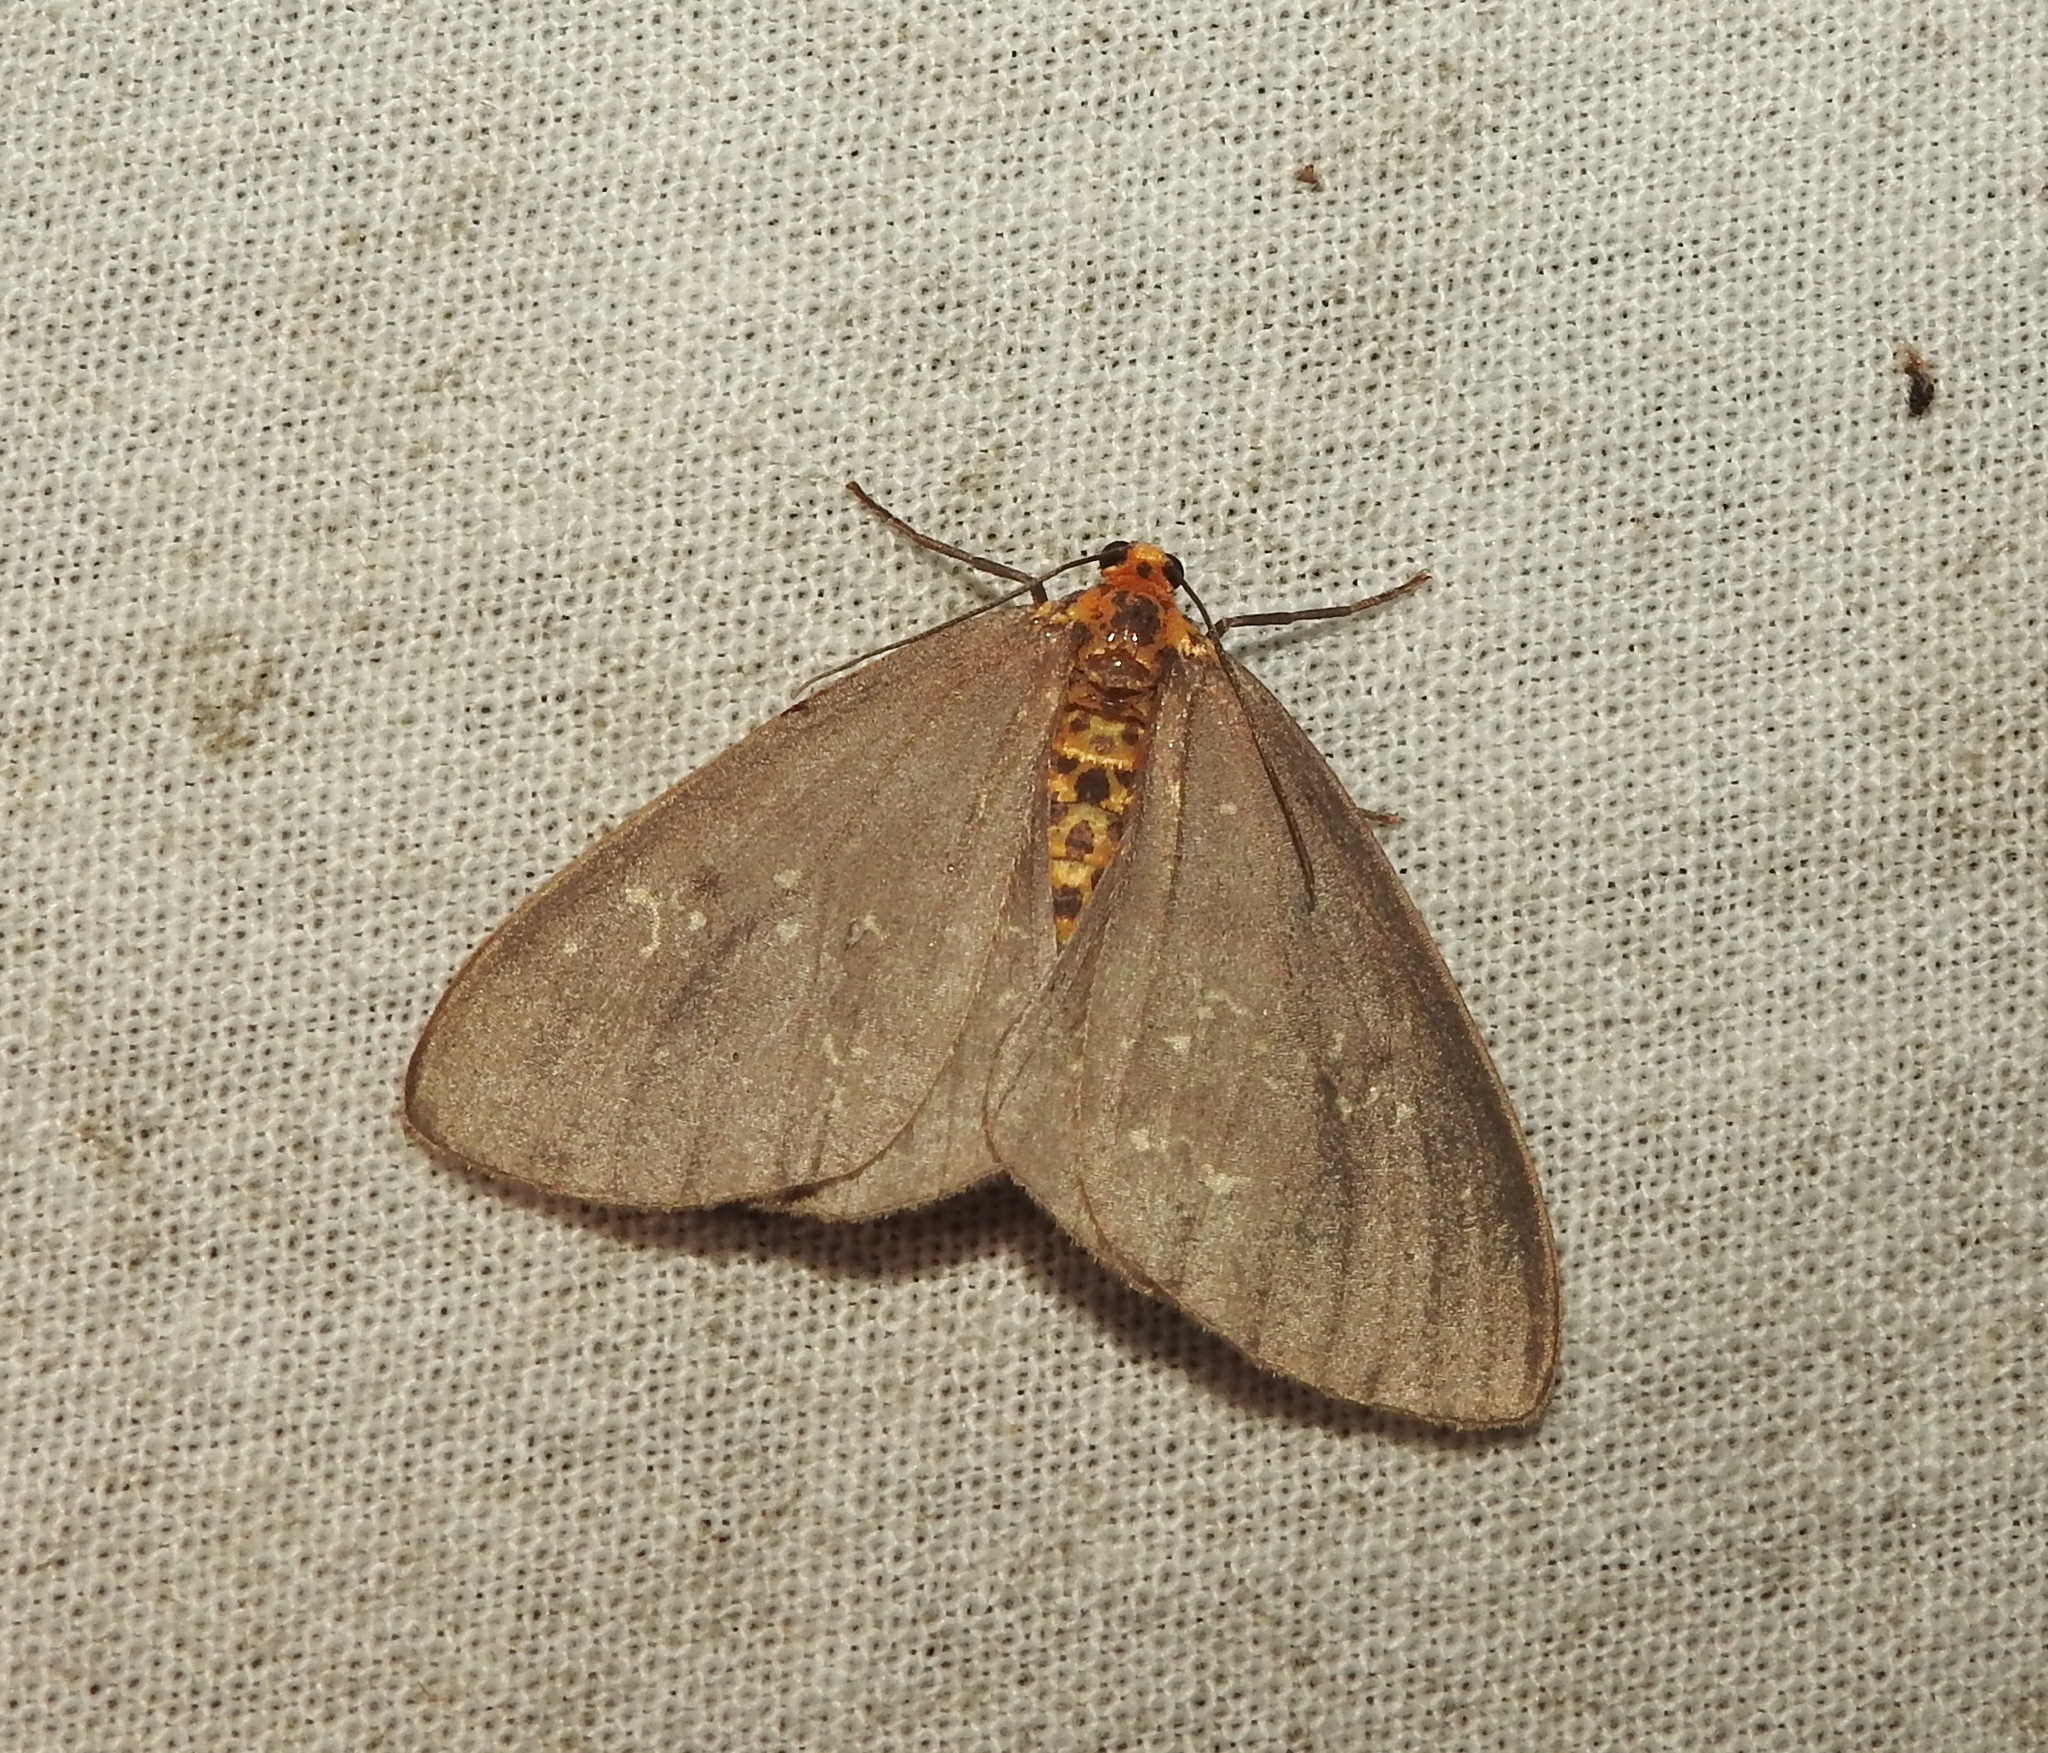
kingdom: Animalia
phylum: Arthropoda
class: Insecta
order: Lepidoptera
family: Geometridae
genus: Abraxas
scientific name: Abraxas poliaria
